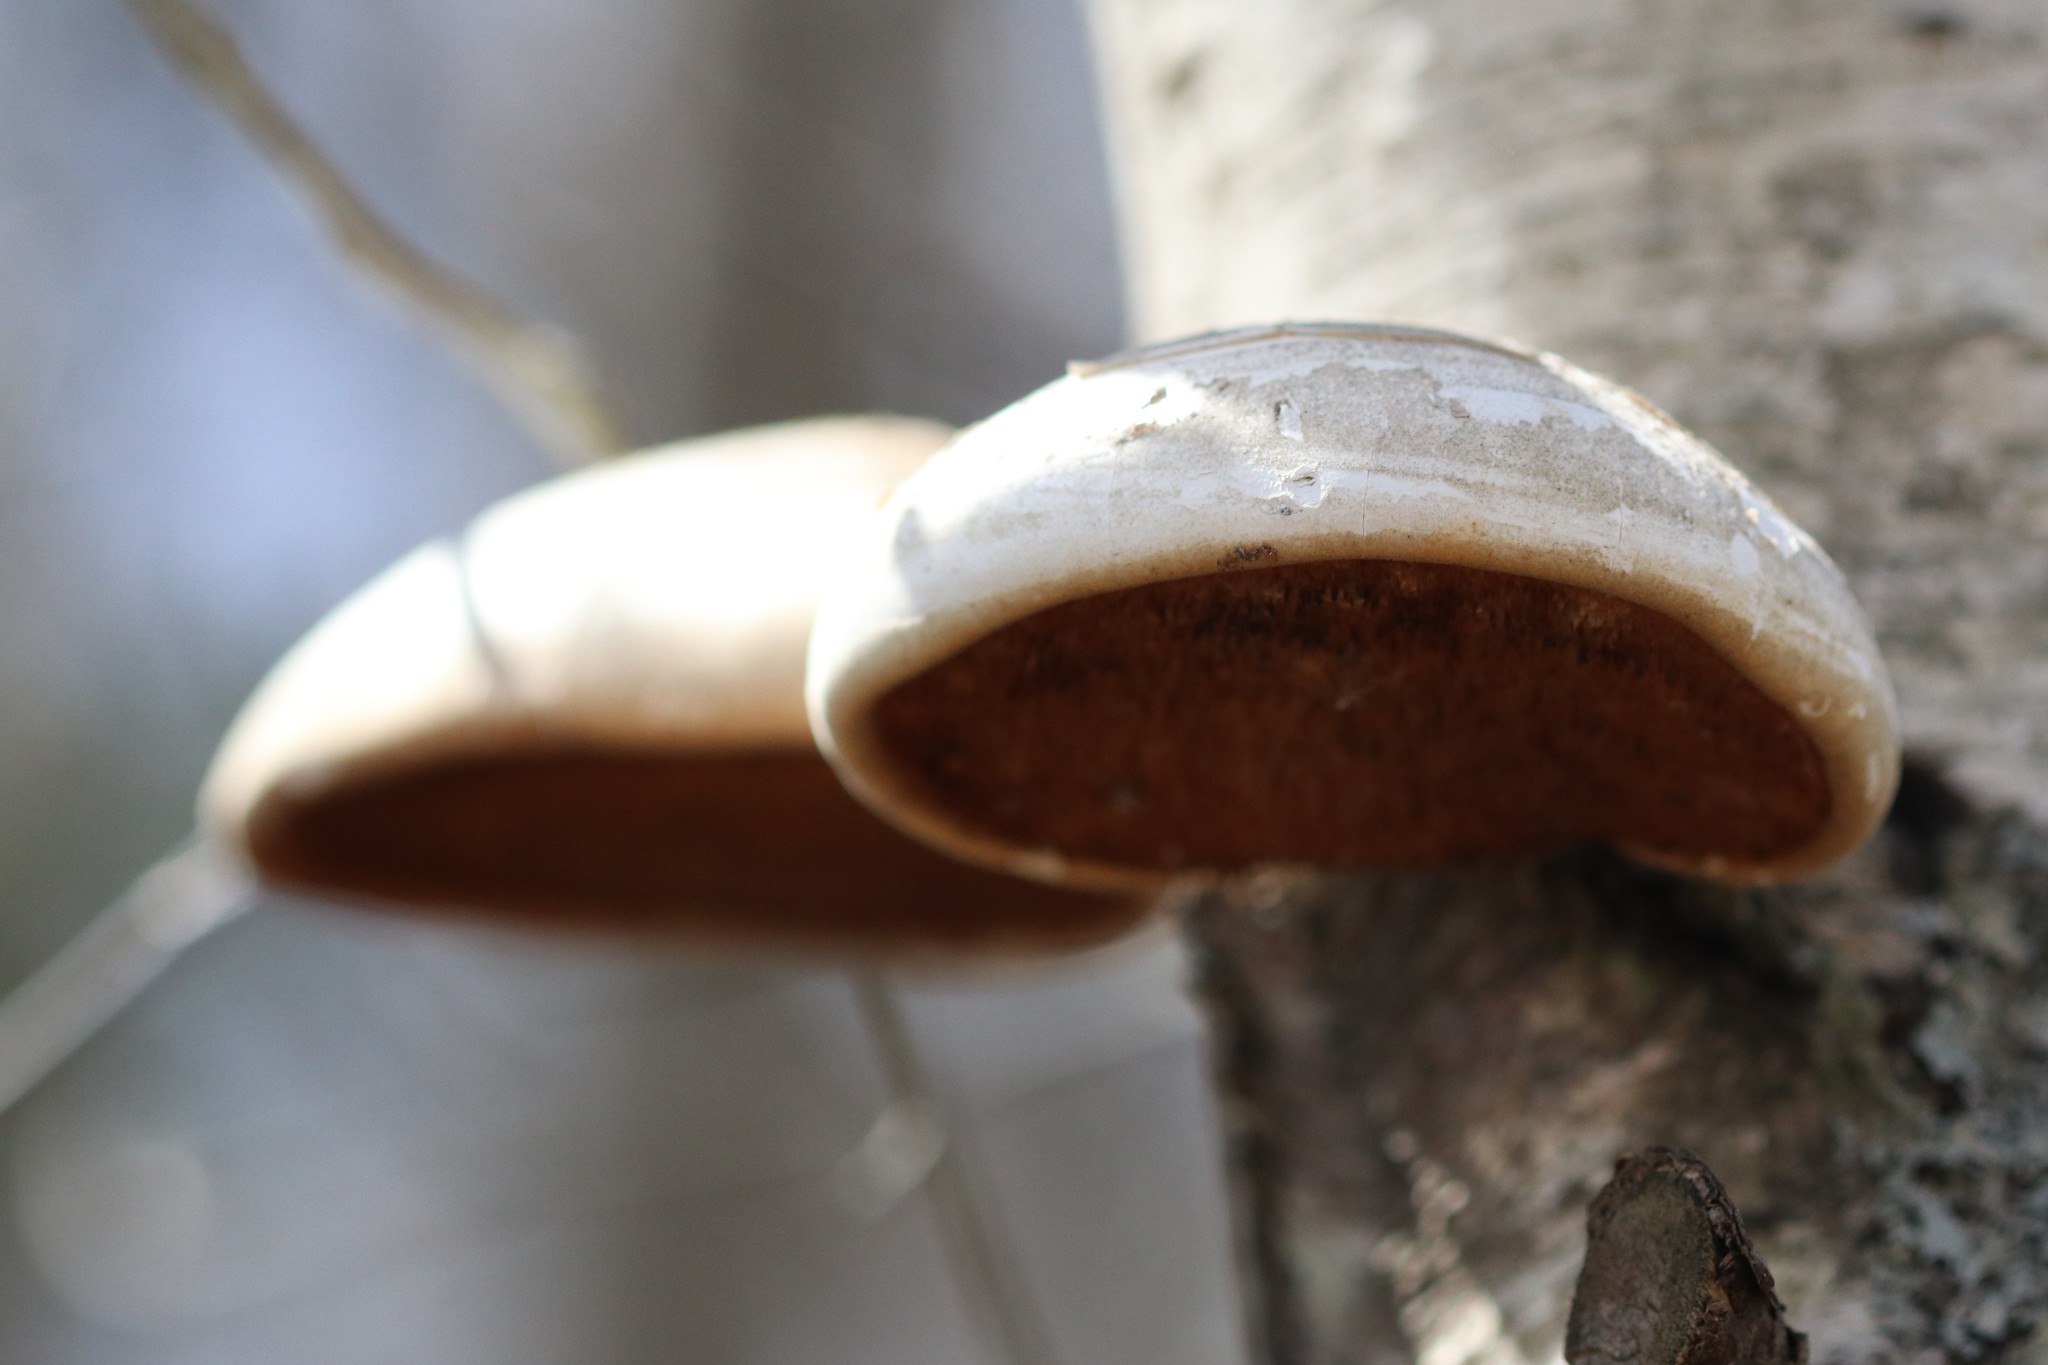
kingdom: Fungi
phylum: Basidiomycota
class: Agaricomycetes
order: Polyporales
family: Fomitopsidaceae
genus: Fomitopsis
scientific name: Fomitopsis betulina
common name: Birch polypore
